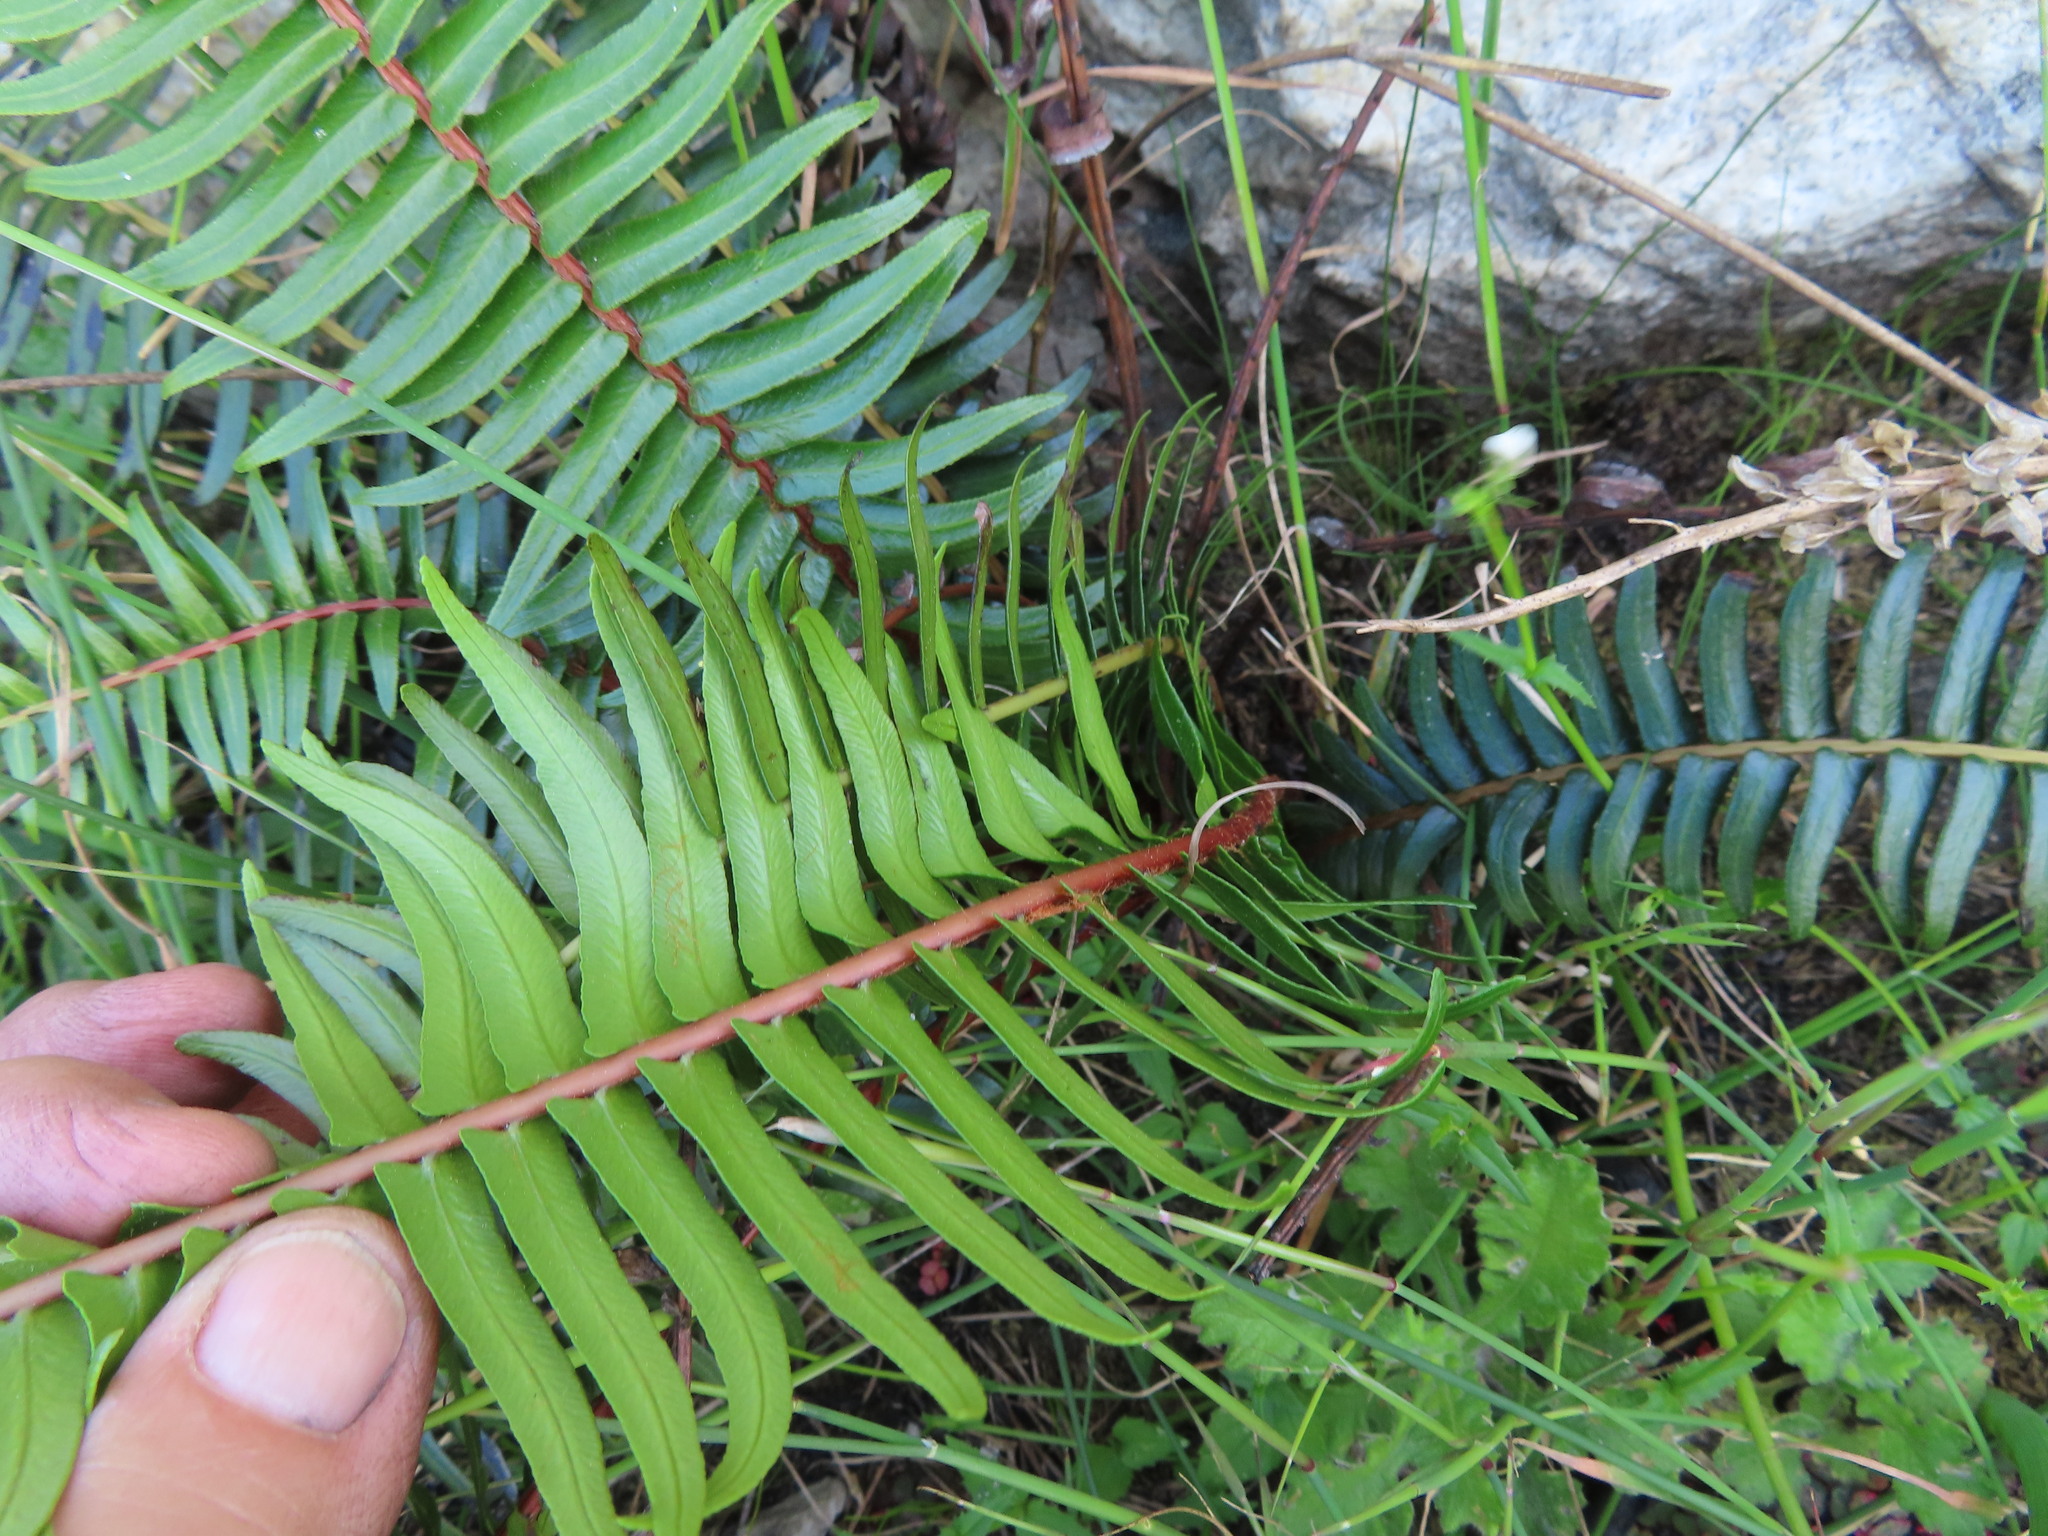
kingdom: Plantae
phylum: Tracheophyta
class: Polypodiopsida
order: Polypodiales
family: Blechnaceae
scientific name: Blechnaceae
